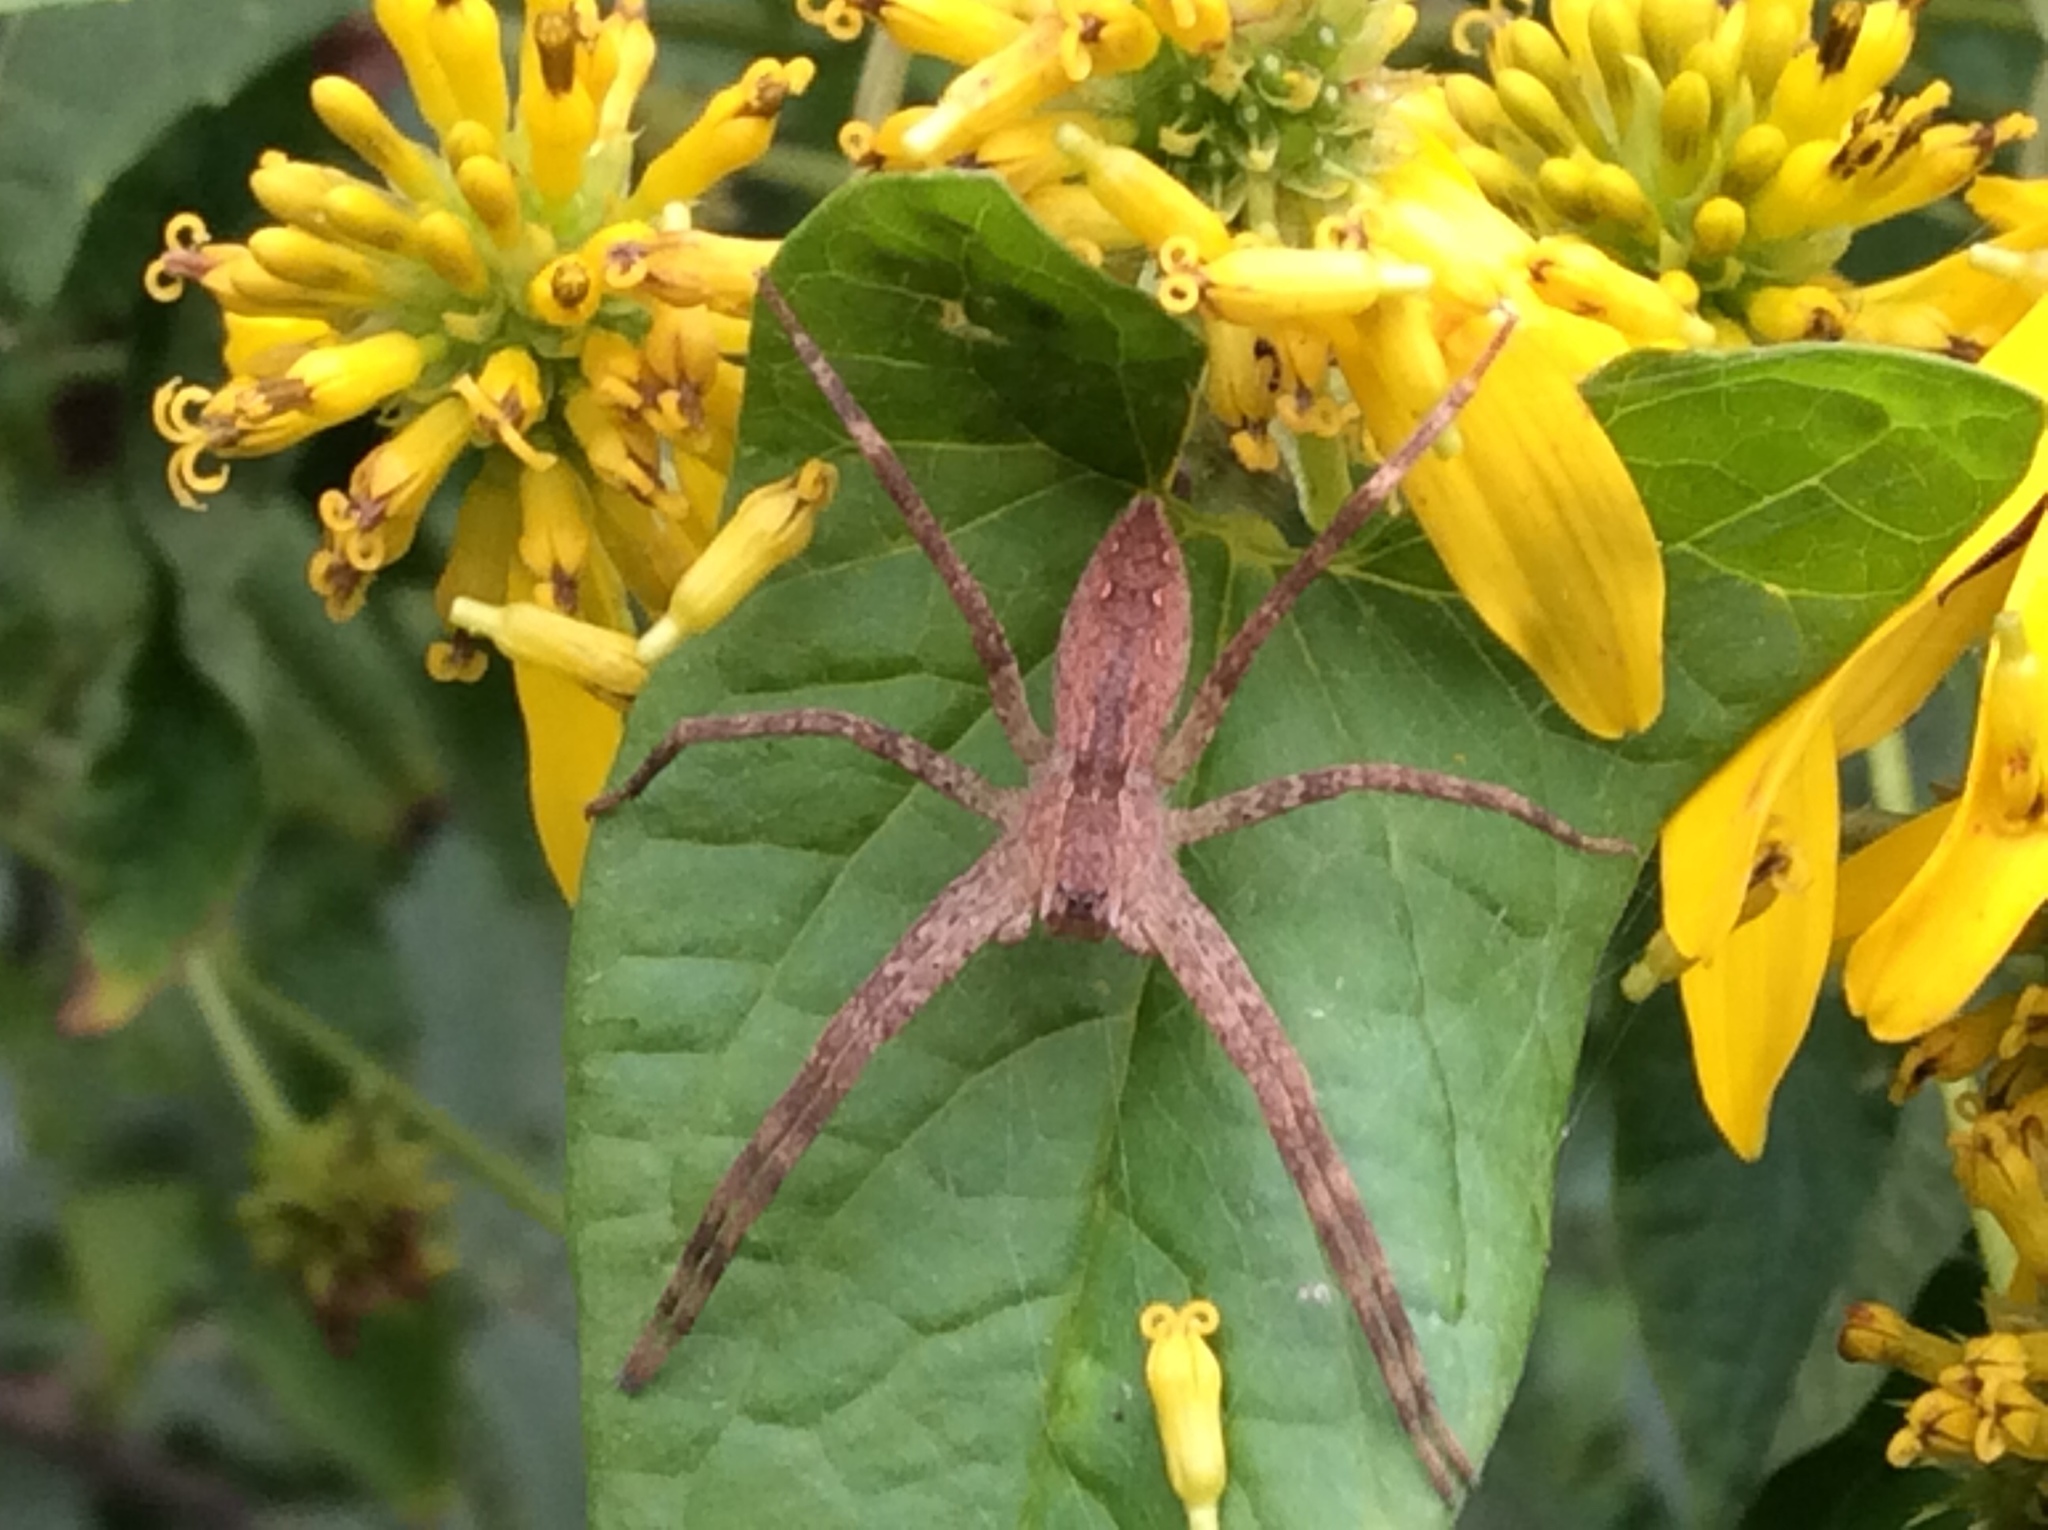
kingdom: Animalia
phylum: Arthropoda
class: Arachnida
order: Araneae
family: Pisauridae
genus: Pisaurina
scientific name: Pisaurina mira
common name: American nursery web spider
